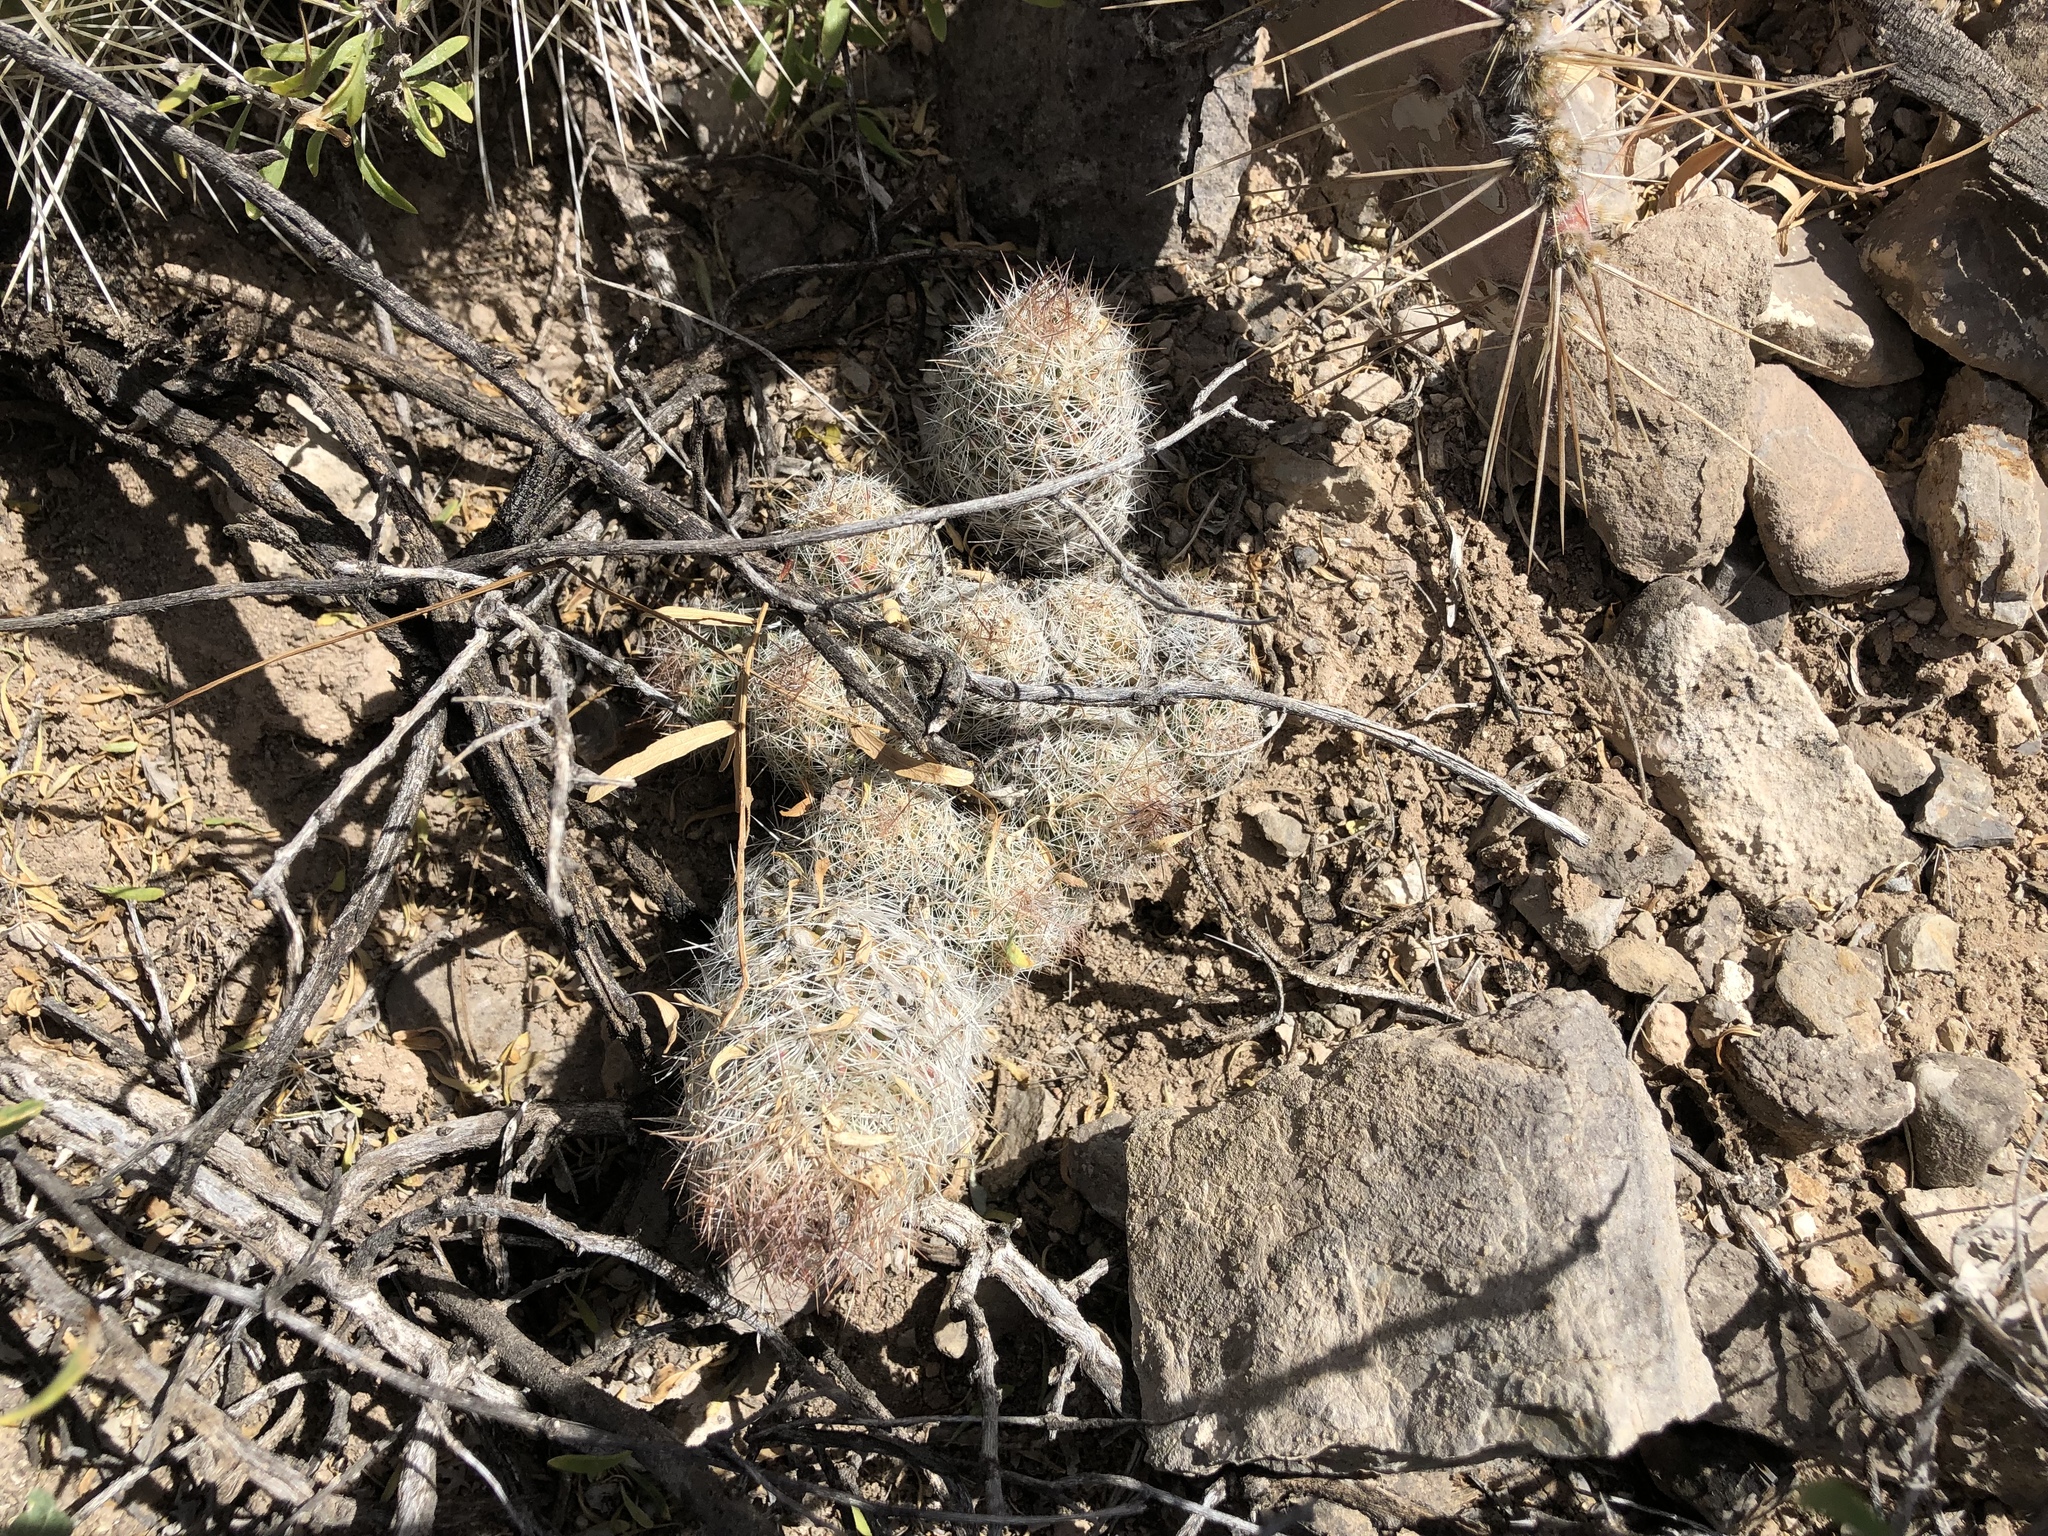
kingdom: Plantae
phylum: Tracheophyta
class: Magnoliopsida
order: Caryophyllales
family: Cactaceae
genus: Pelecyphora
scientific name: Pelecyphora tuberculosa
